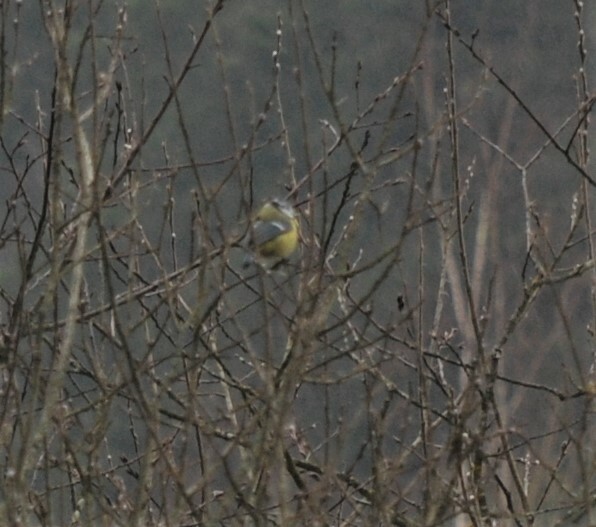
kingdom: Animalia
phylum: Chordata
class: Aves
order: Passeriformes
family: Paridae
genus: Cyanistes
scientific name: Cyanistes caeruleus
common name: Eurasian blue tit
